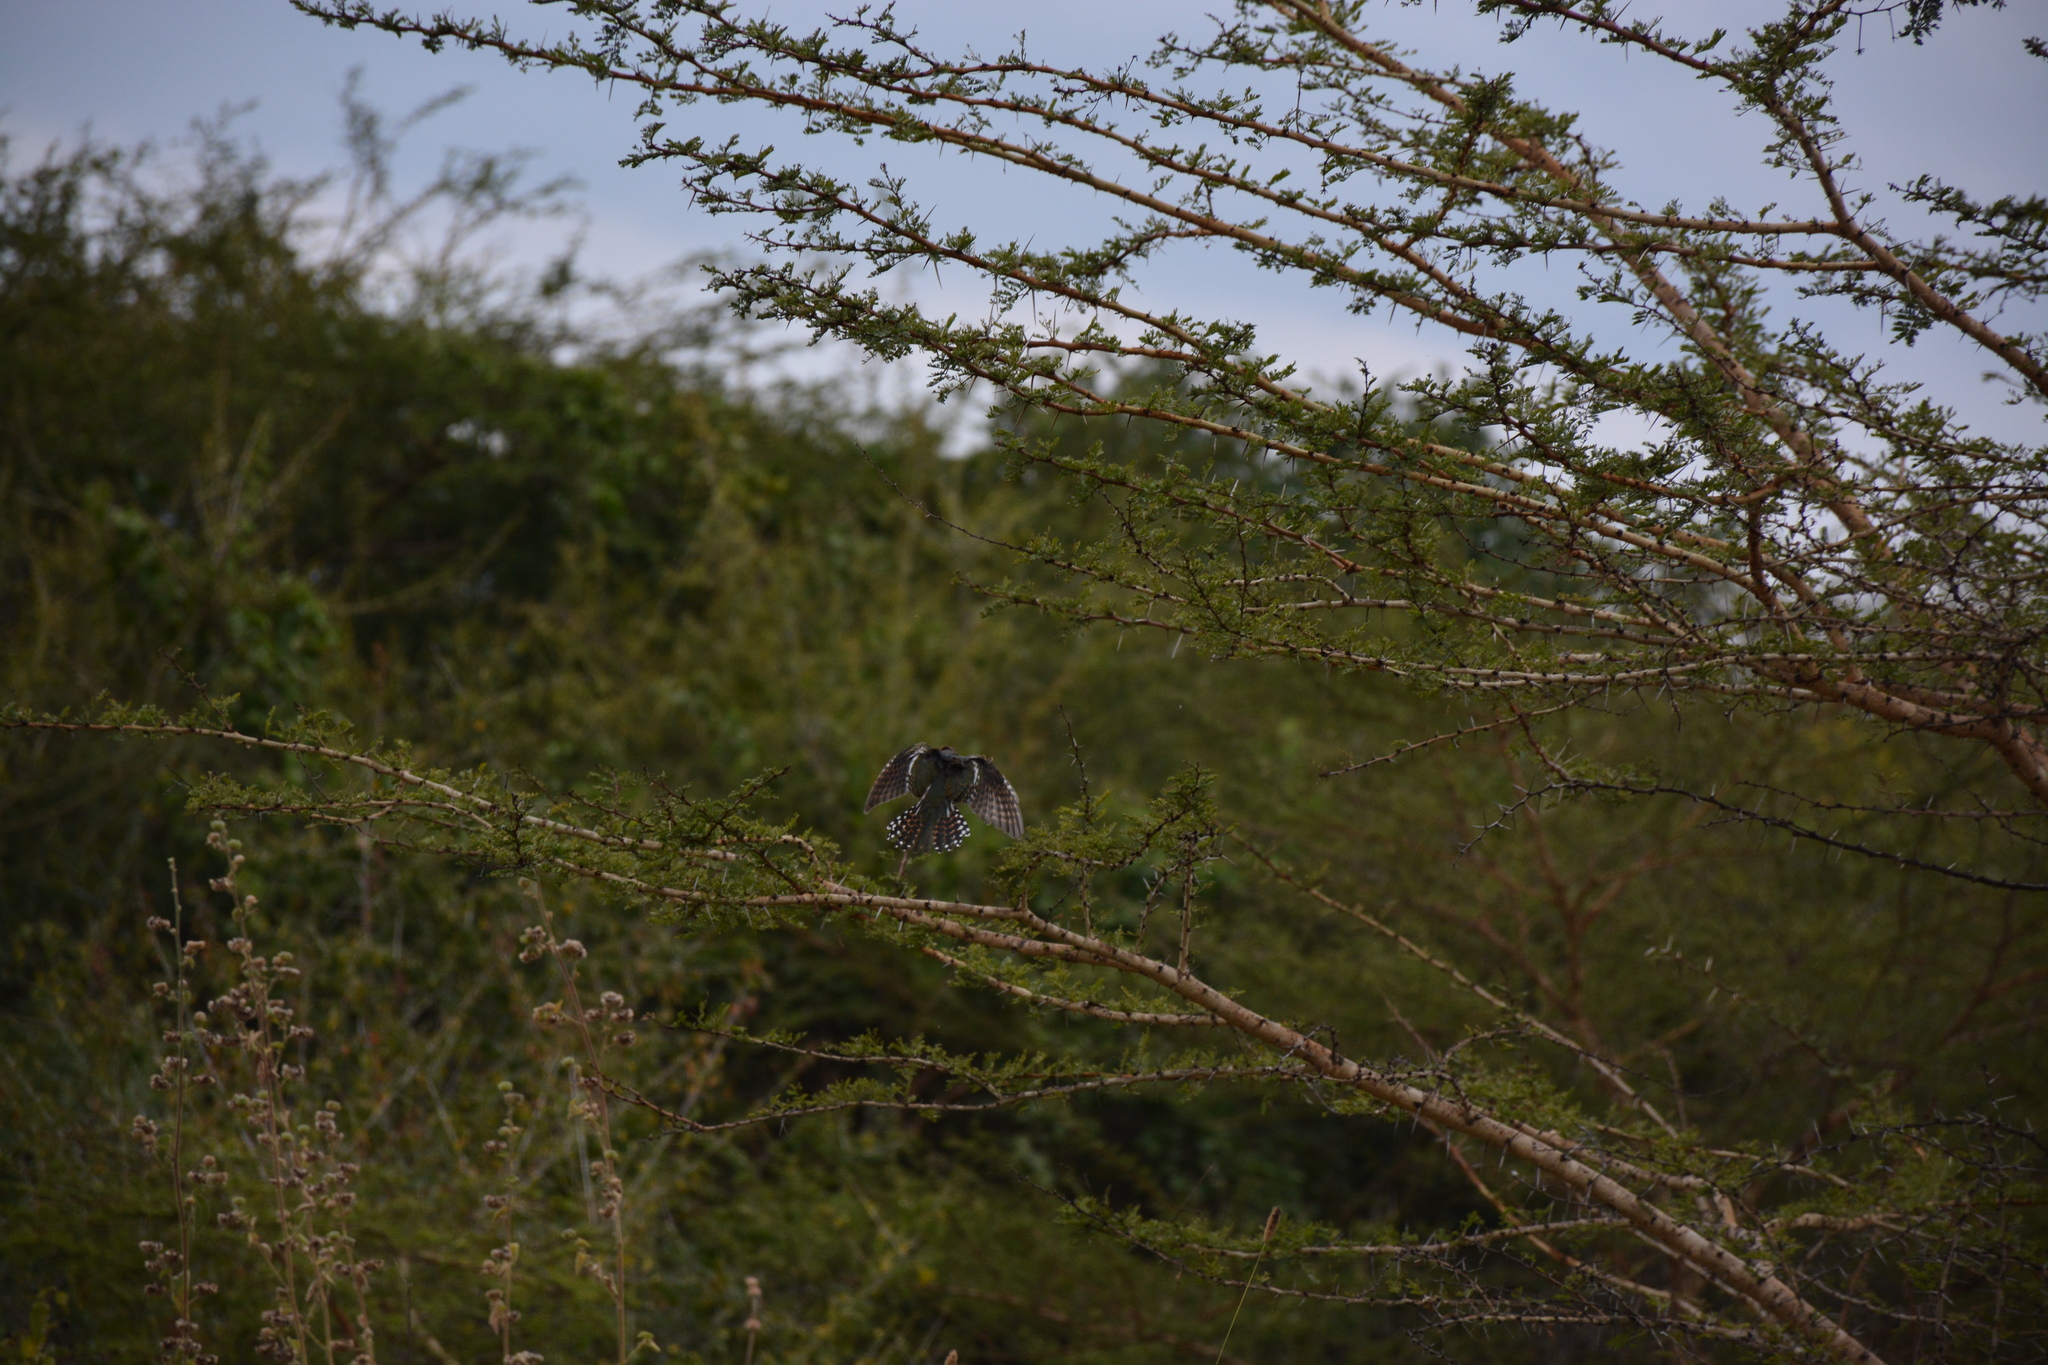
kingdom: Animalia
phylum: Chordata
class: Aves
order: Cuculiformes
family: Cuculidae
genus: Chrysococcyx
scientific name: Chrysococcyx caprius
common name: Diederik cuckoo
